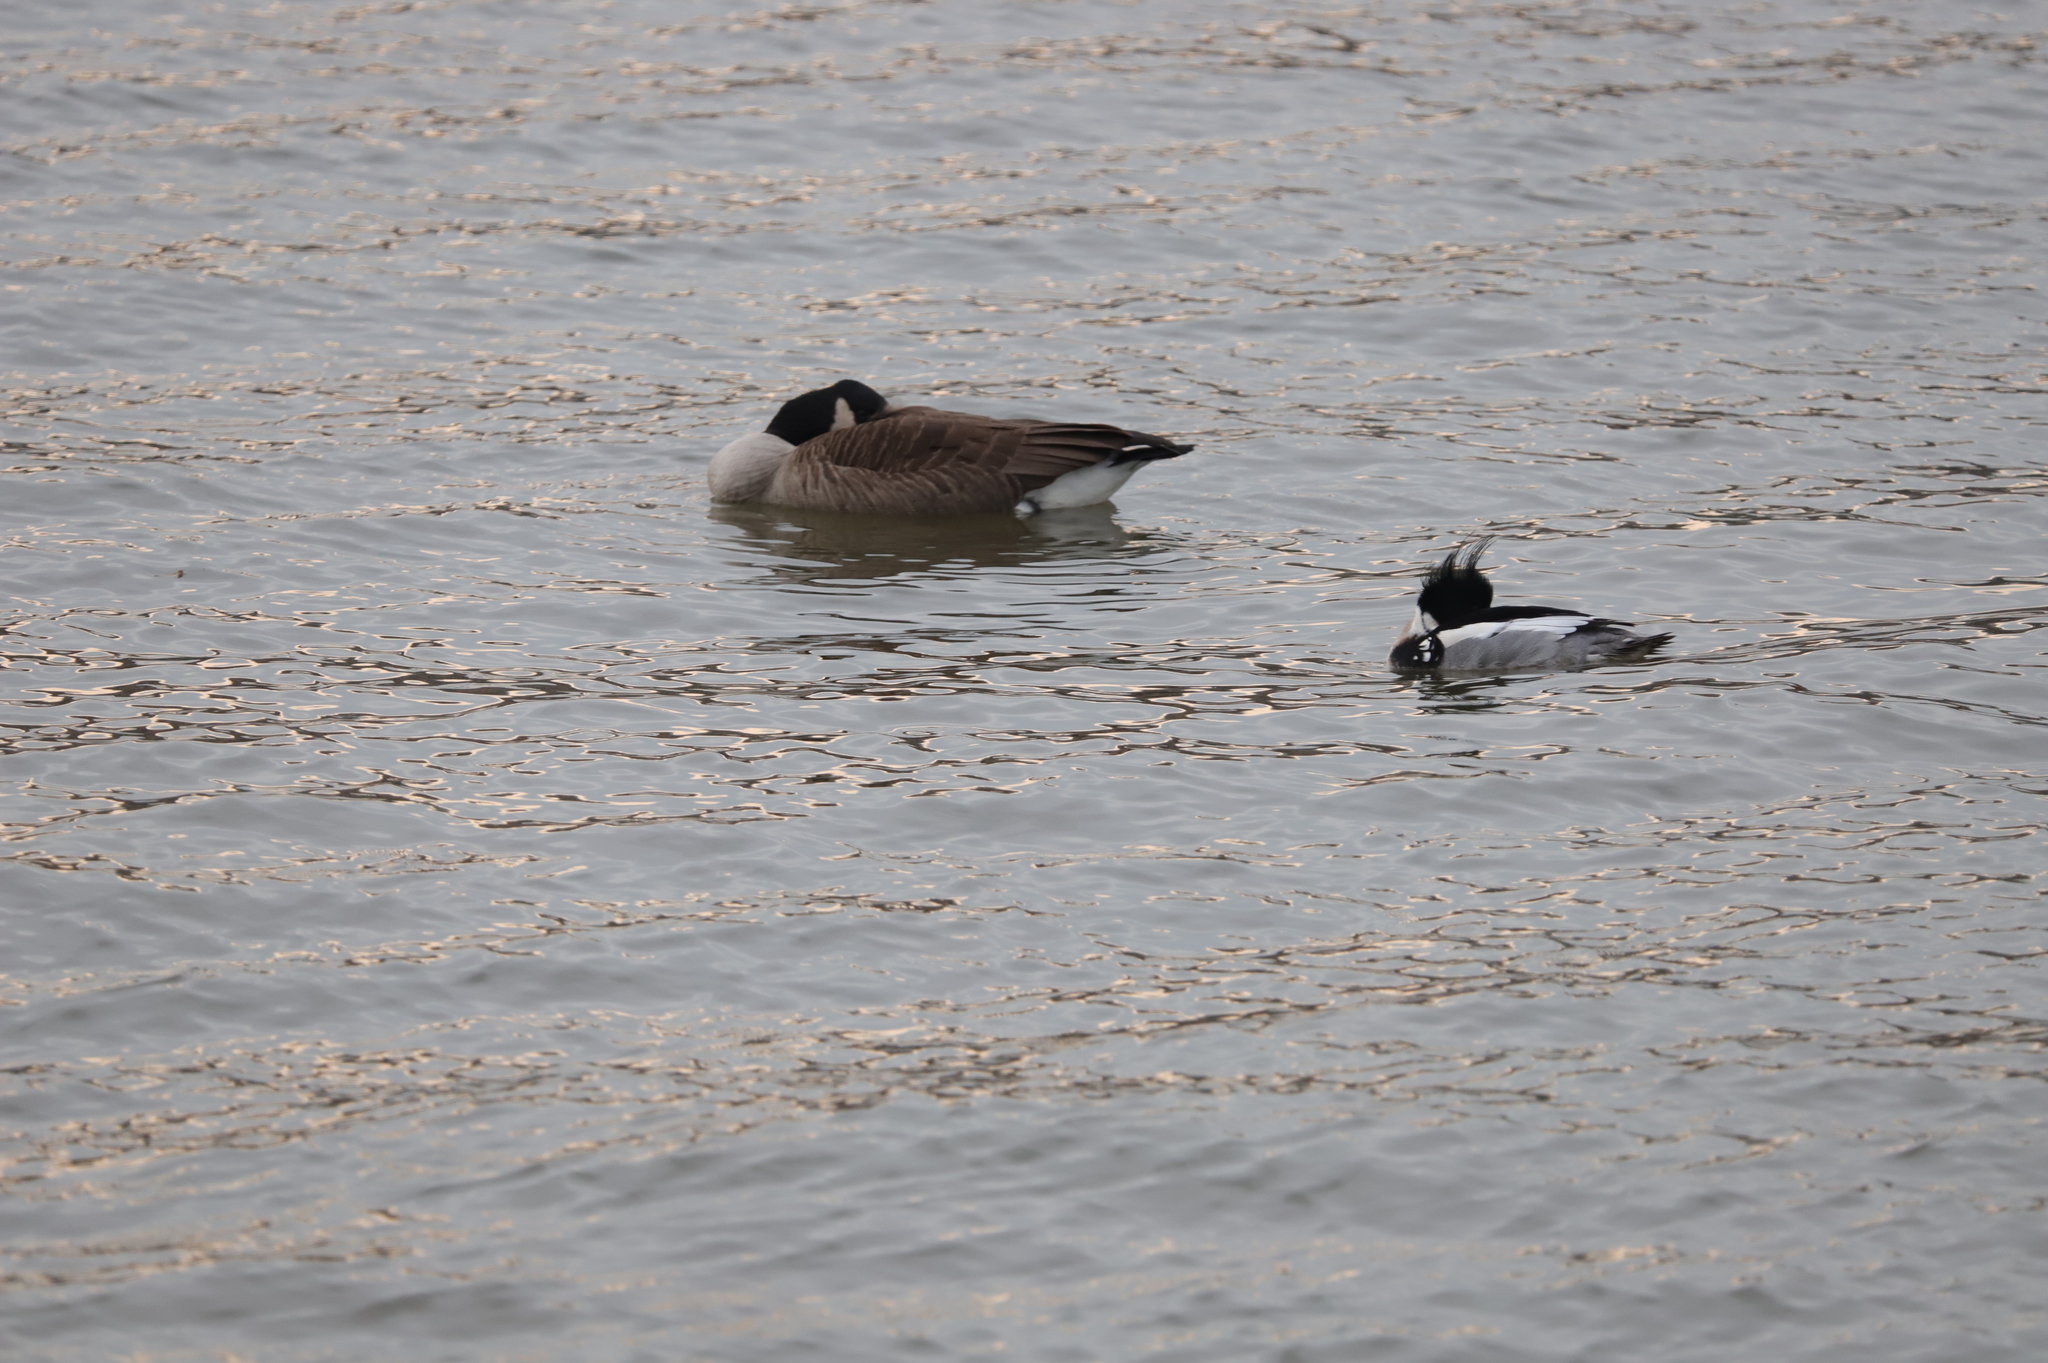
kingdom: Animalia
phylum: Chordata
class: Aves
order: Anseriformes
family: Anatidae
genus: Mergus
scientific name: Mergus serrator
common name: Red-breasted merganser
